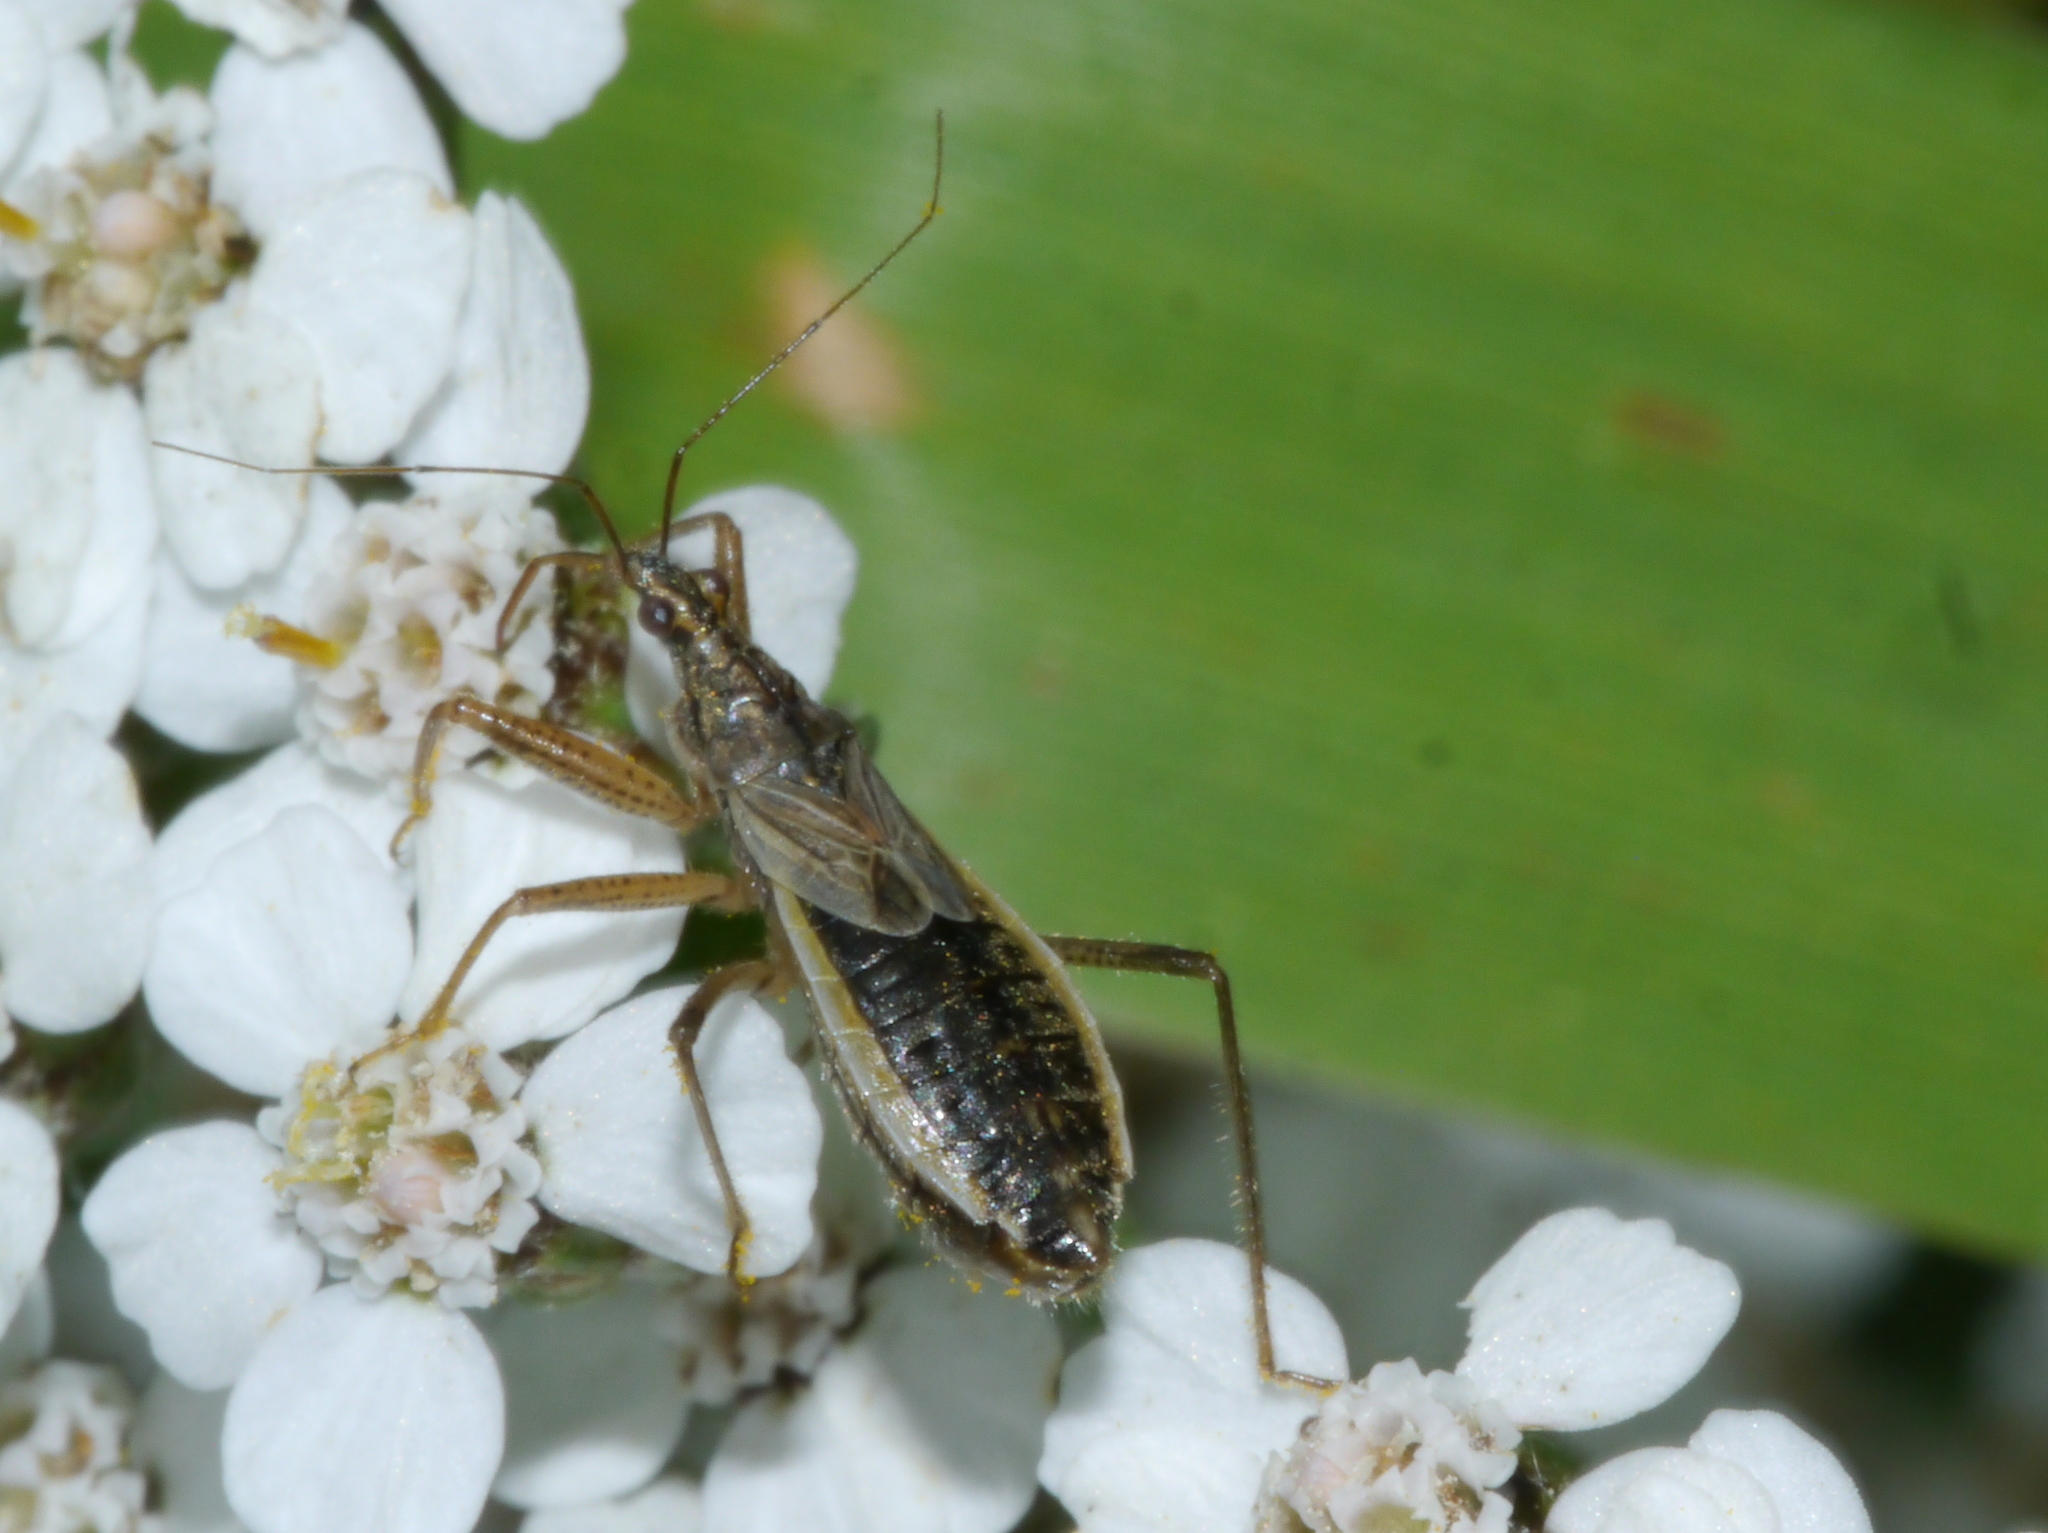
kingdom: Animalia
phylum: Arthropoda
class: Insecta
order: Hemiptera
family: Nabidae
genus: Nabis
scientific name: Nabis flavomarginatus
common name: Broad damselbug
